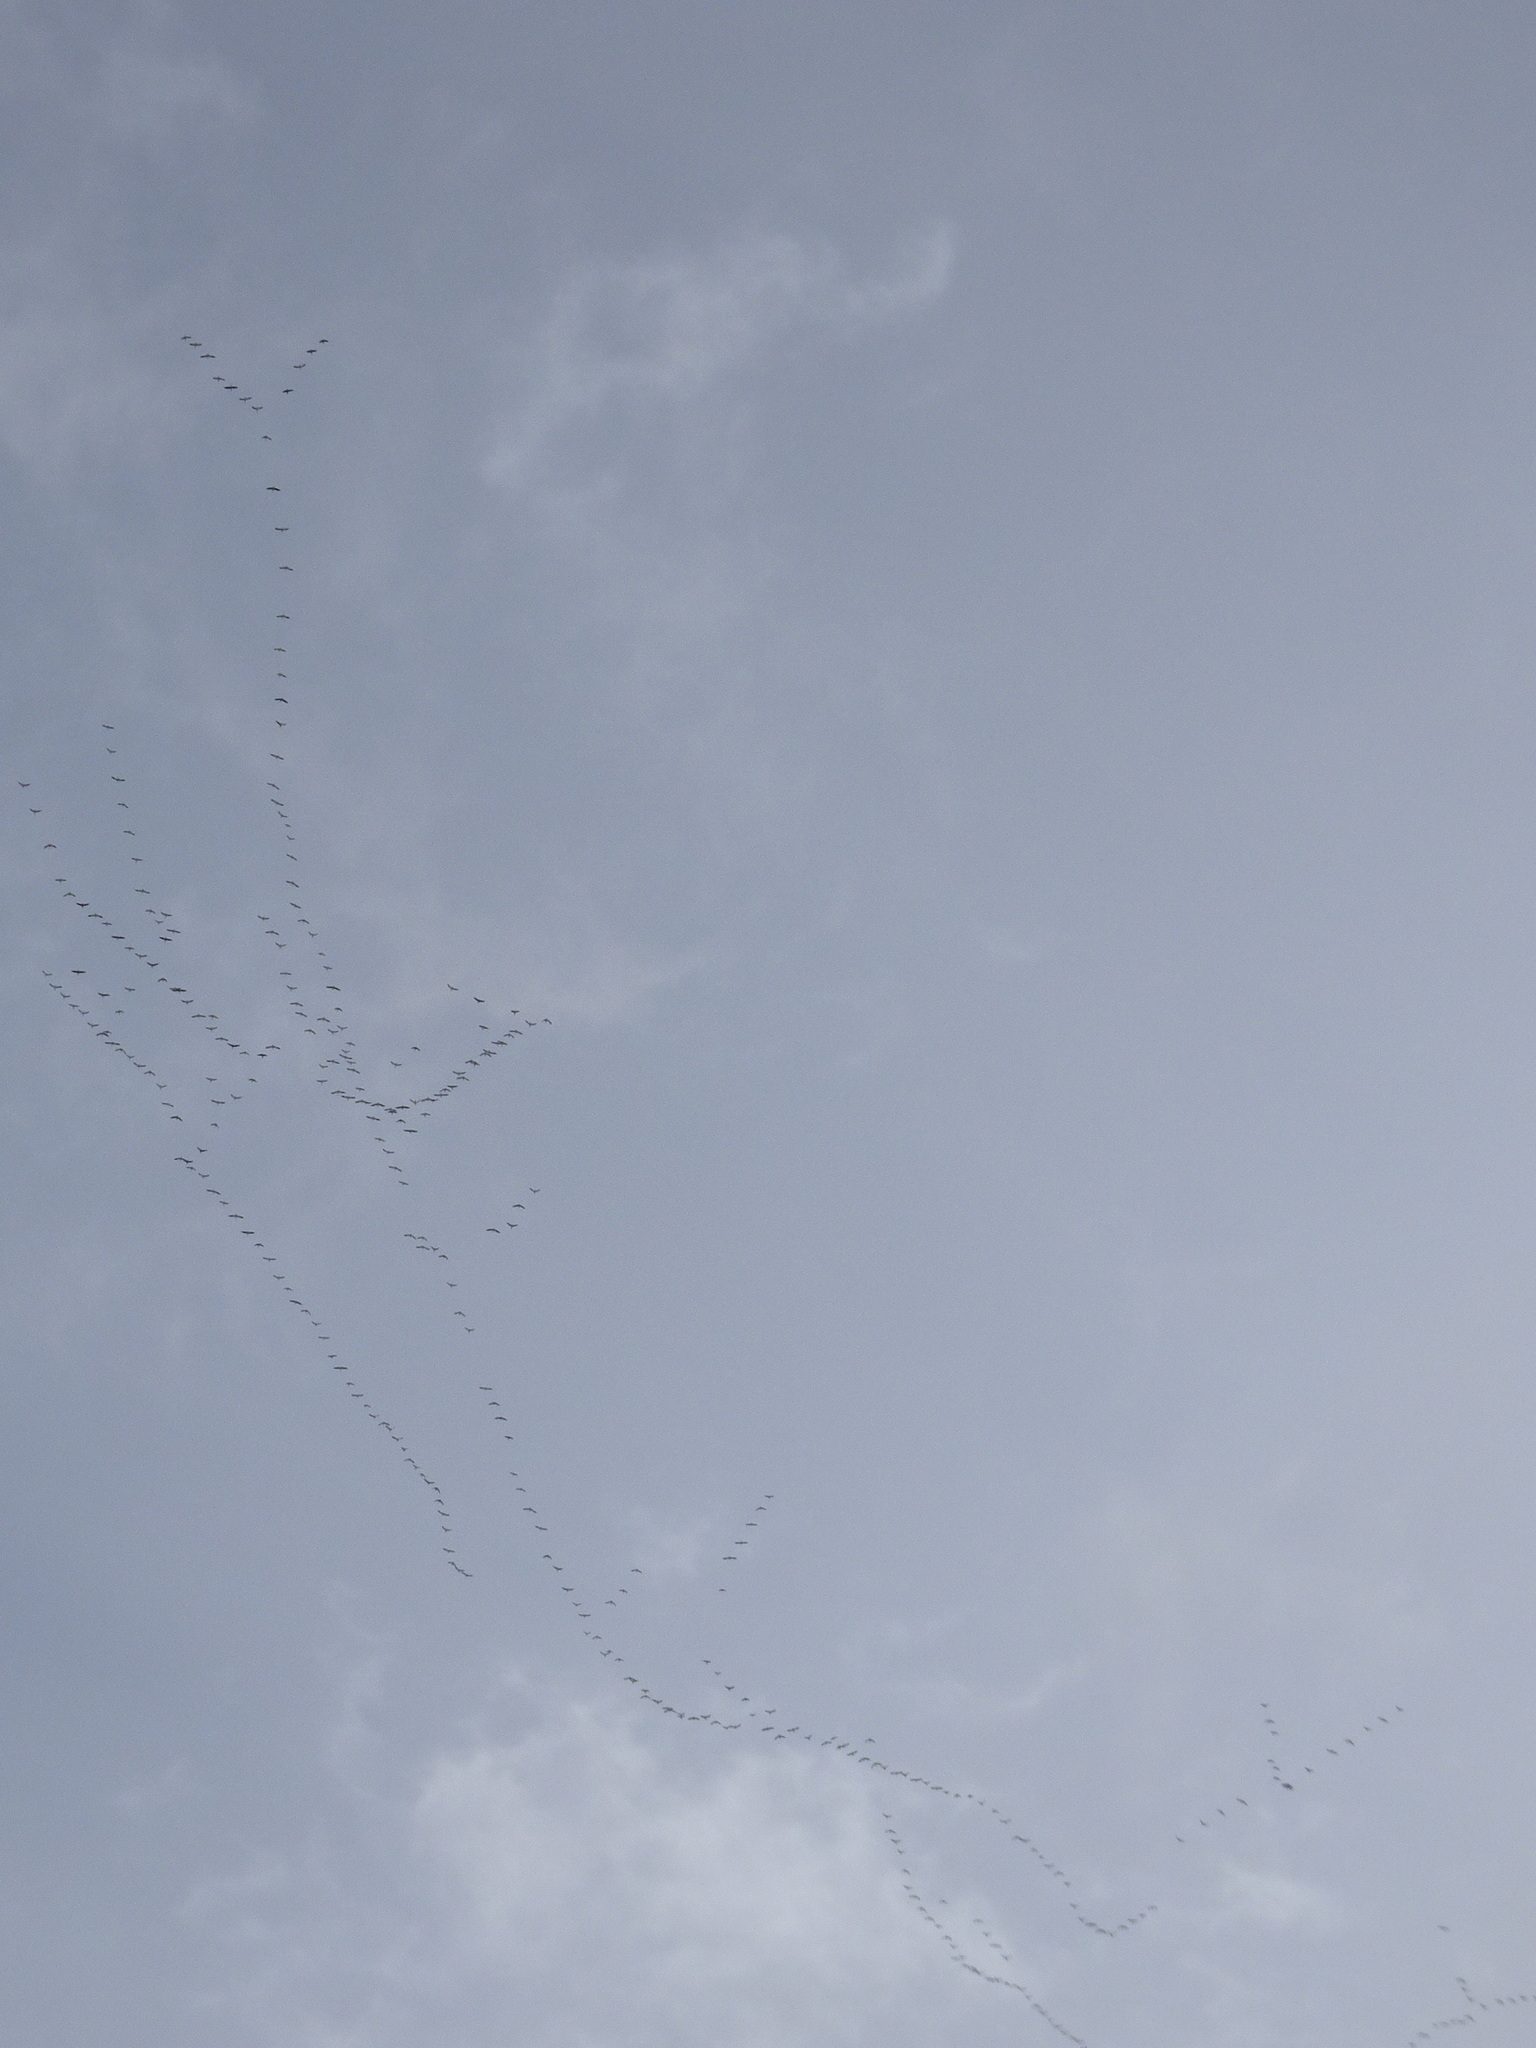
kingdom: Animalia
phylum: Chordata
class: Aves
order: Anseriformes
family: Anatidae
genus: Anser
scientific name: Anser caerulescens
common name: Snow goose
